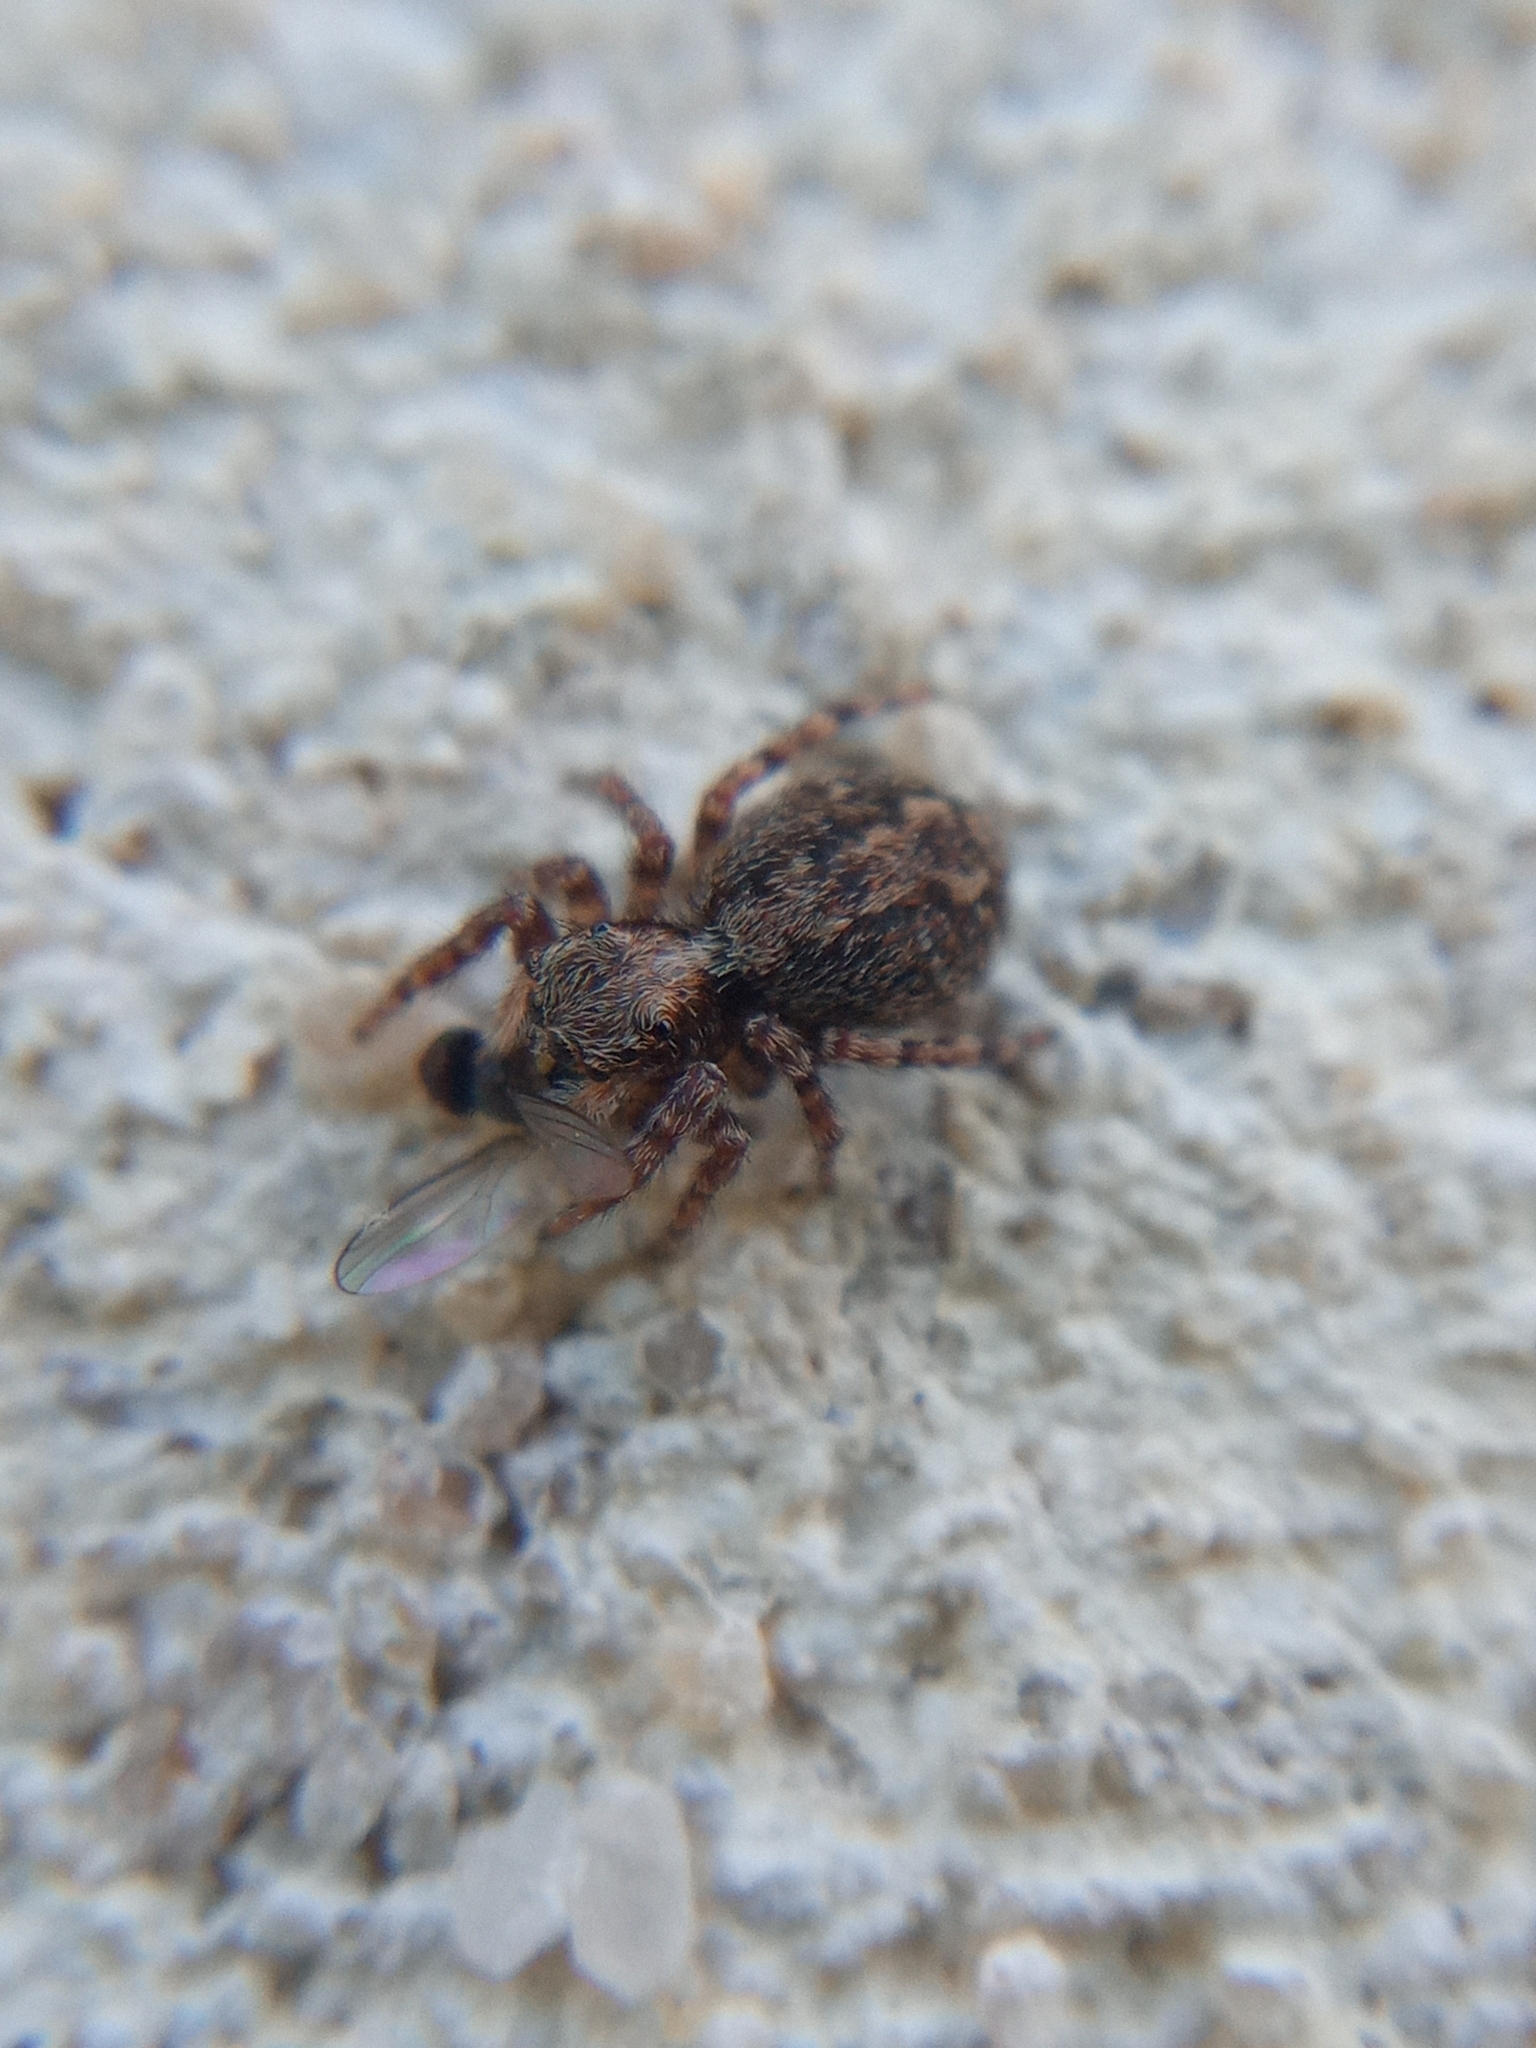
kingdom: Animalia
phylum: Arthropoda
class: Arachnida
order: Araneae
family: Salticidae
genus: Pseudeuophrys
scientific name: Pseudeuophrys lanigera
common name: Jumping spider
